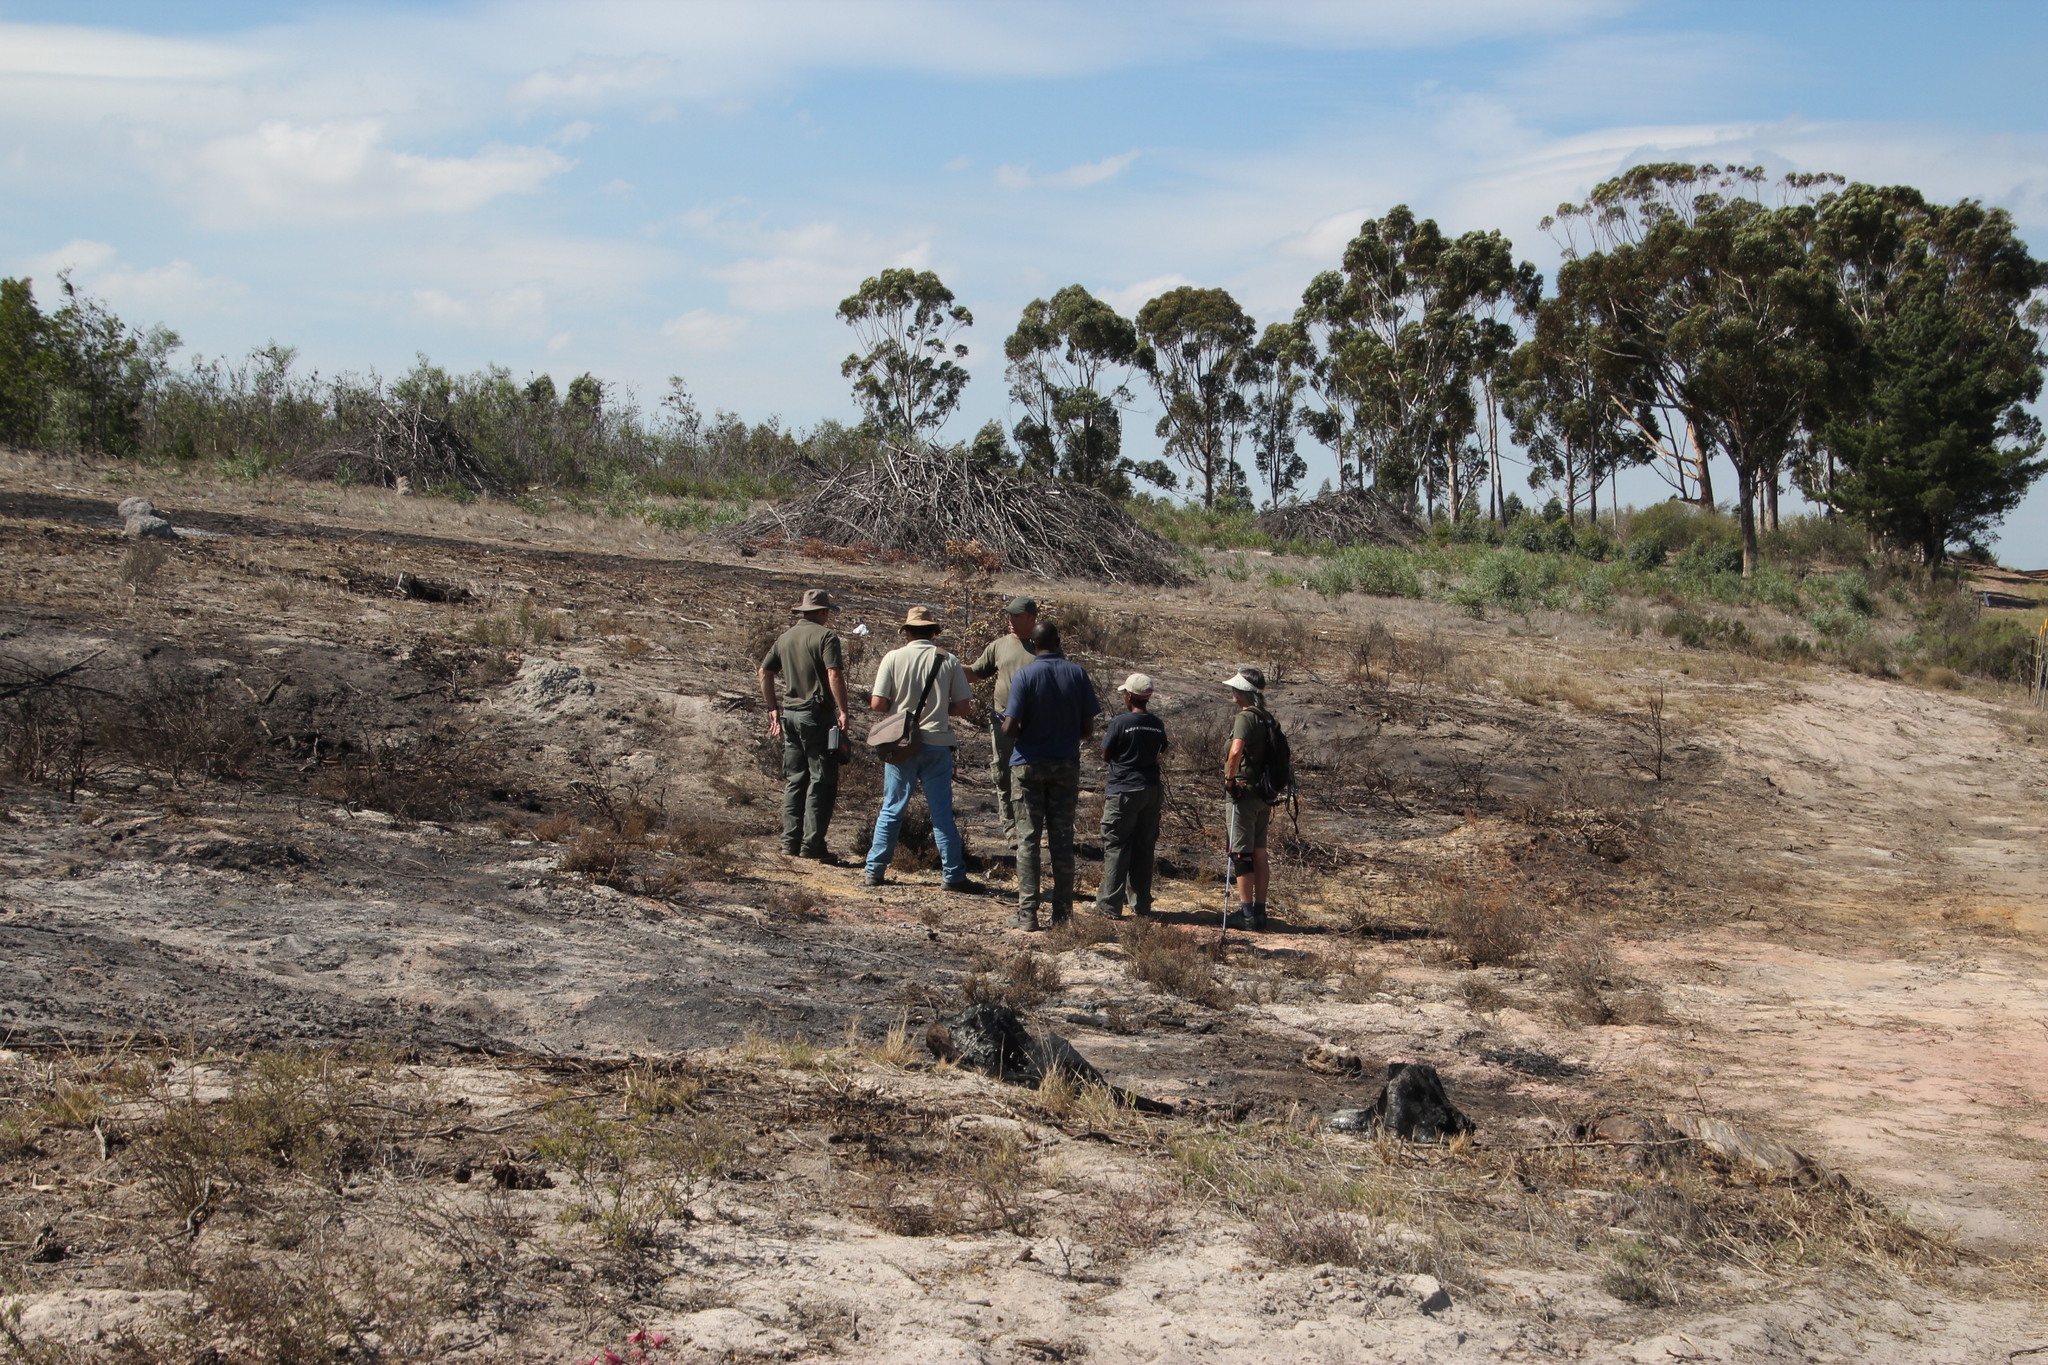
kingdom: Plantae
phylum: Tracheophyta
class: Liliopsida
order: Asparagales
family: Amaryllidaceae
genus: Haemanthus
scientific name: Haemanthus pubescens
